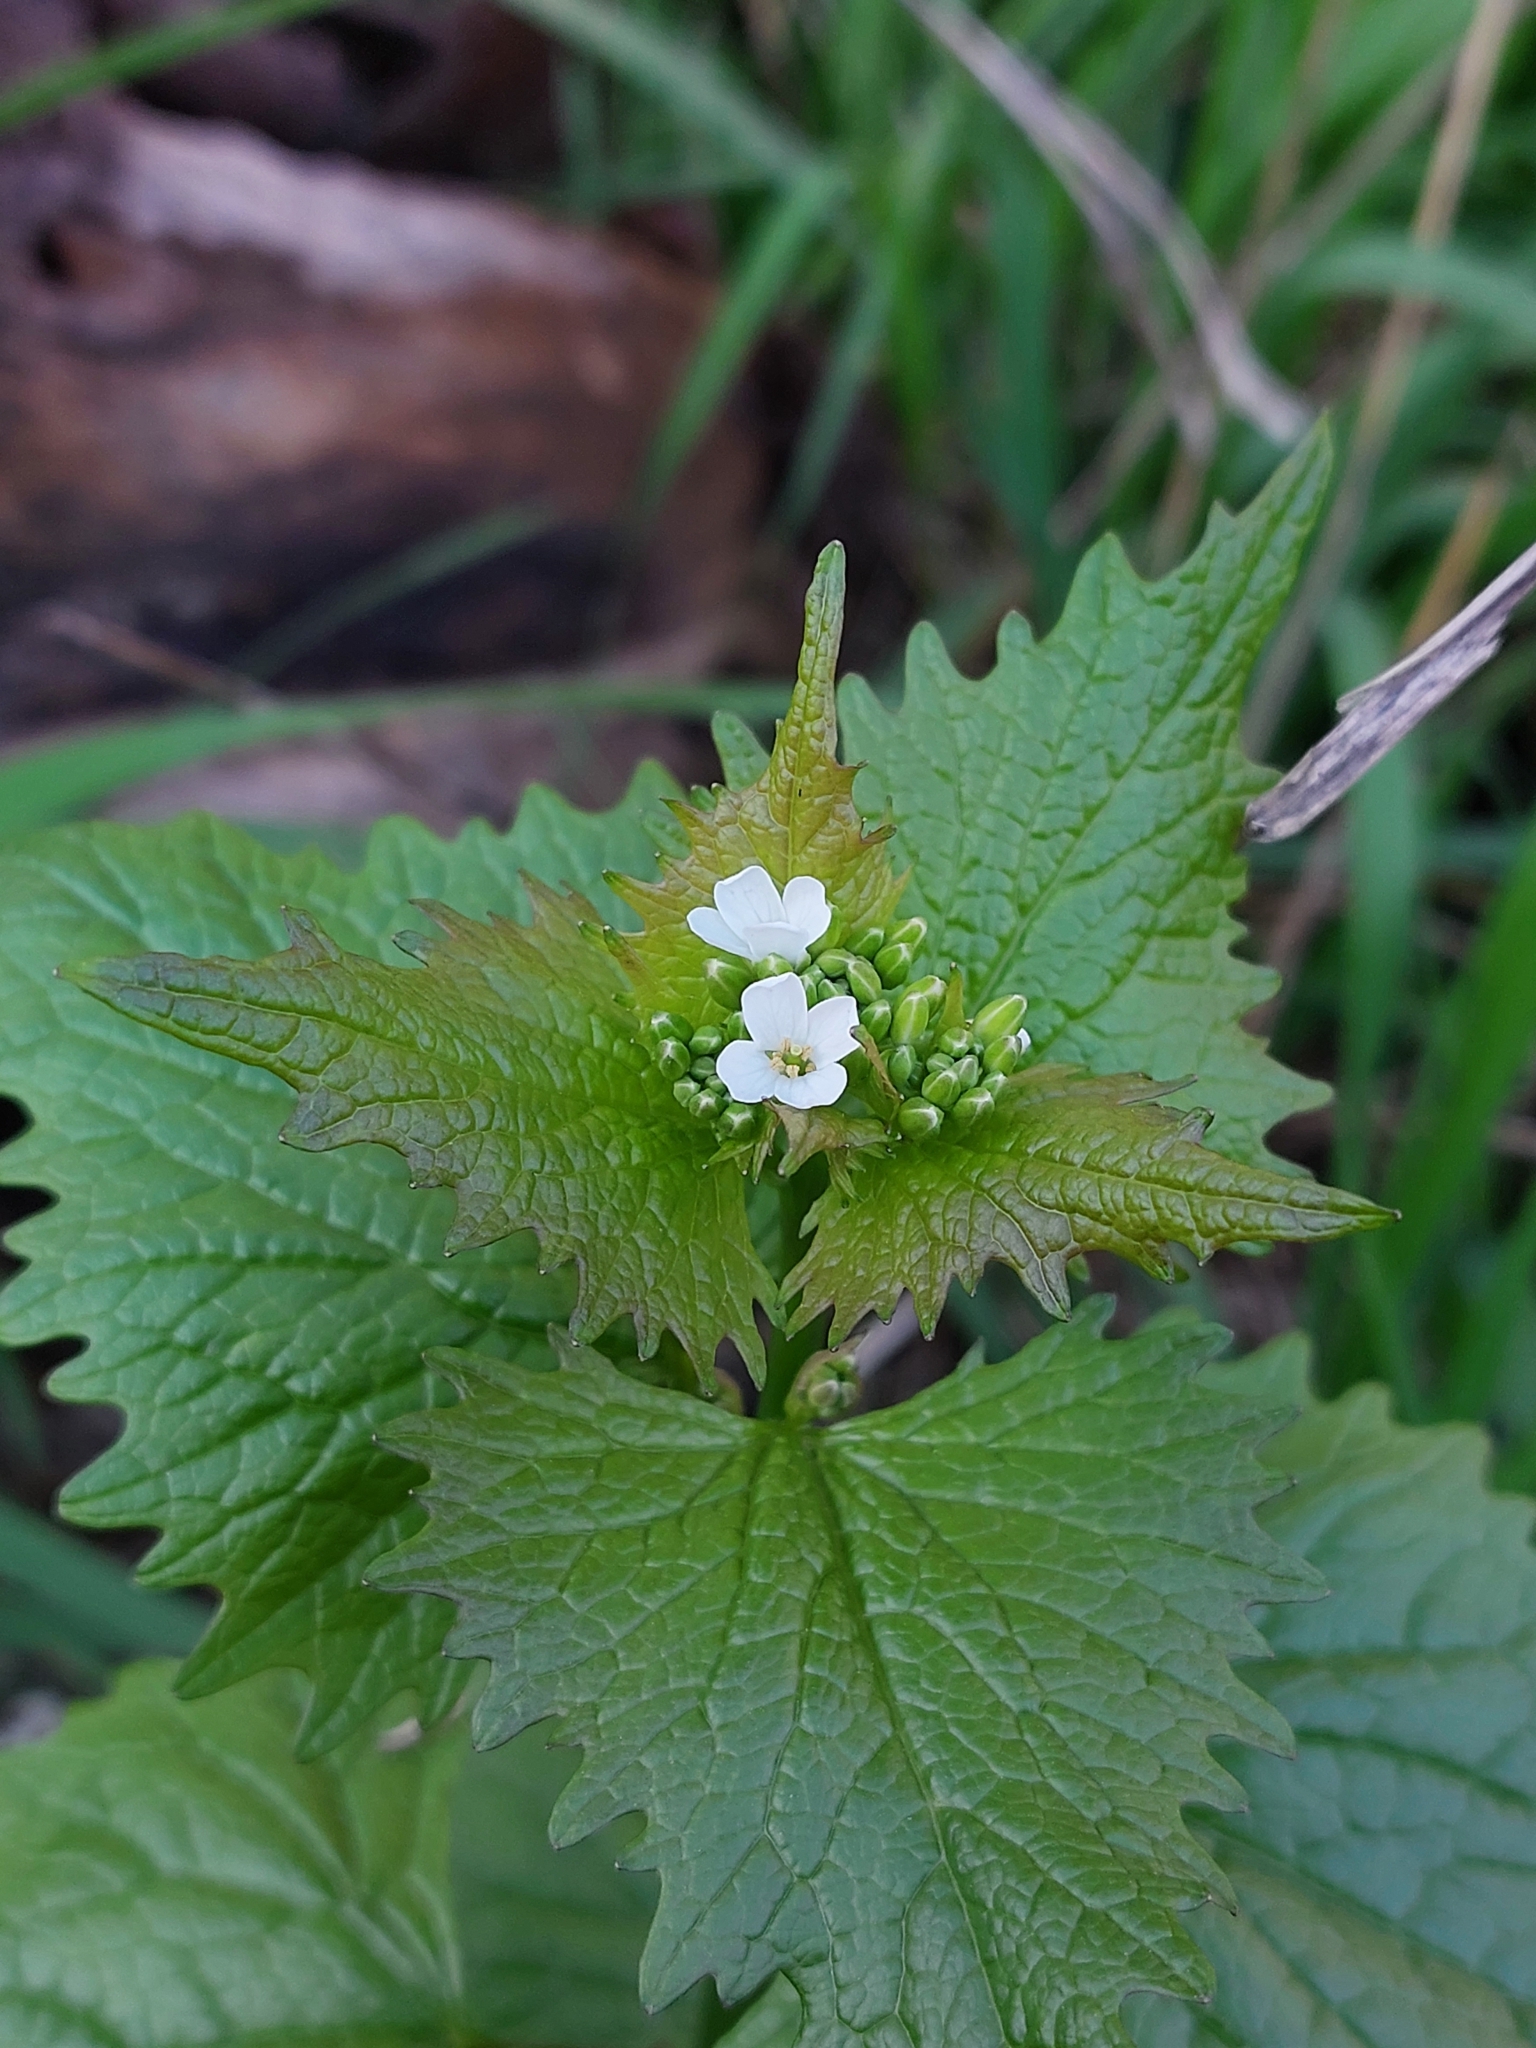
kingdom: Plantae
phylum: Tracheophyta
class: Magnoliopsida
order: Brassicales
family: Brassicaceae
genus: Alliaria
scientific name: Alliaria petiolata
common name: Garlic mustard
